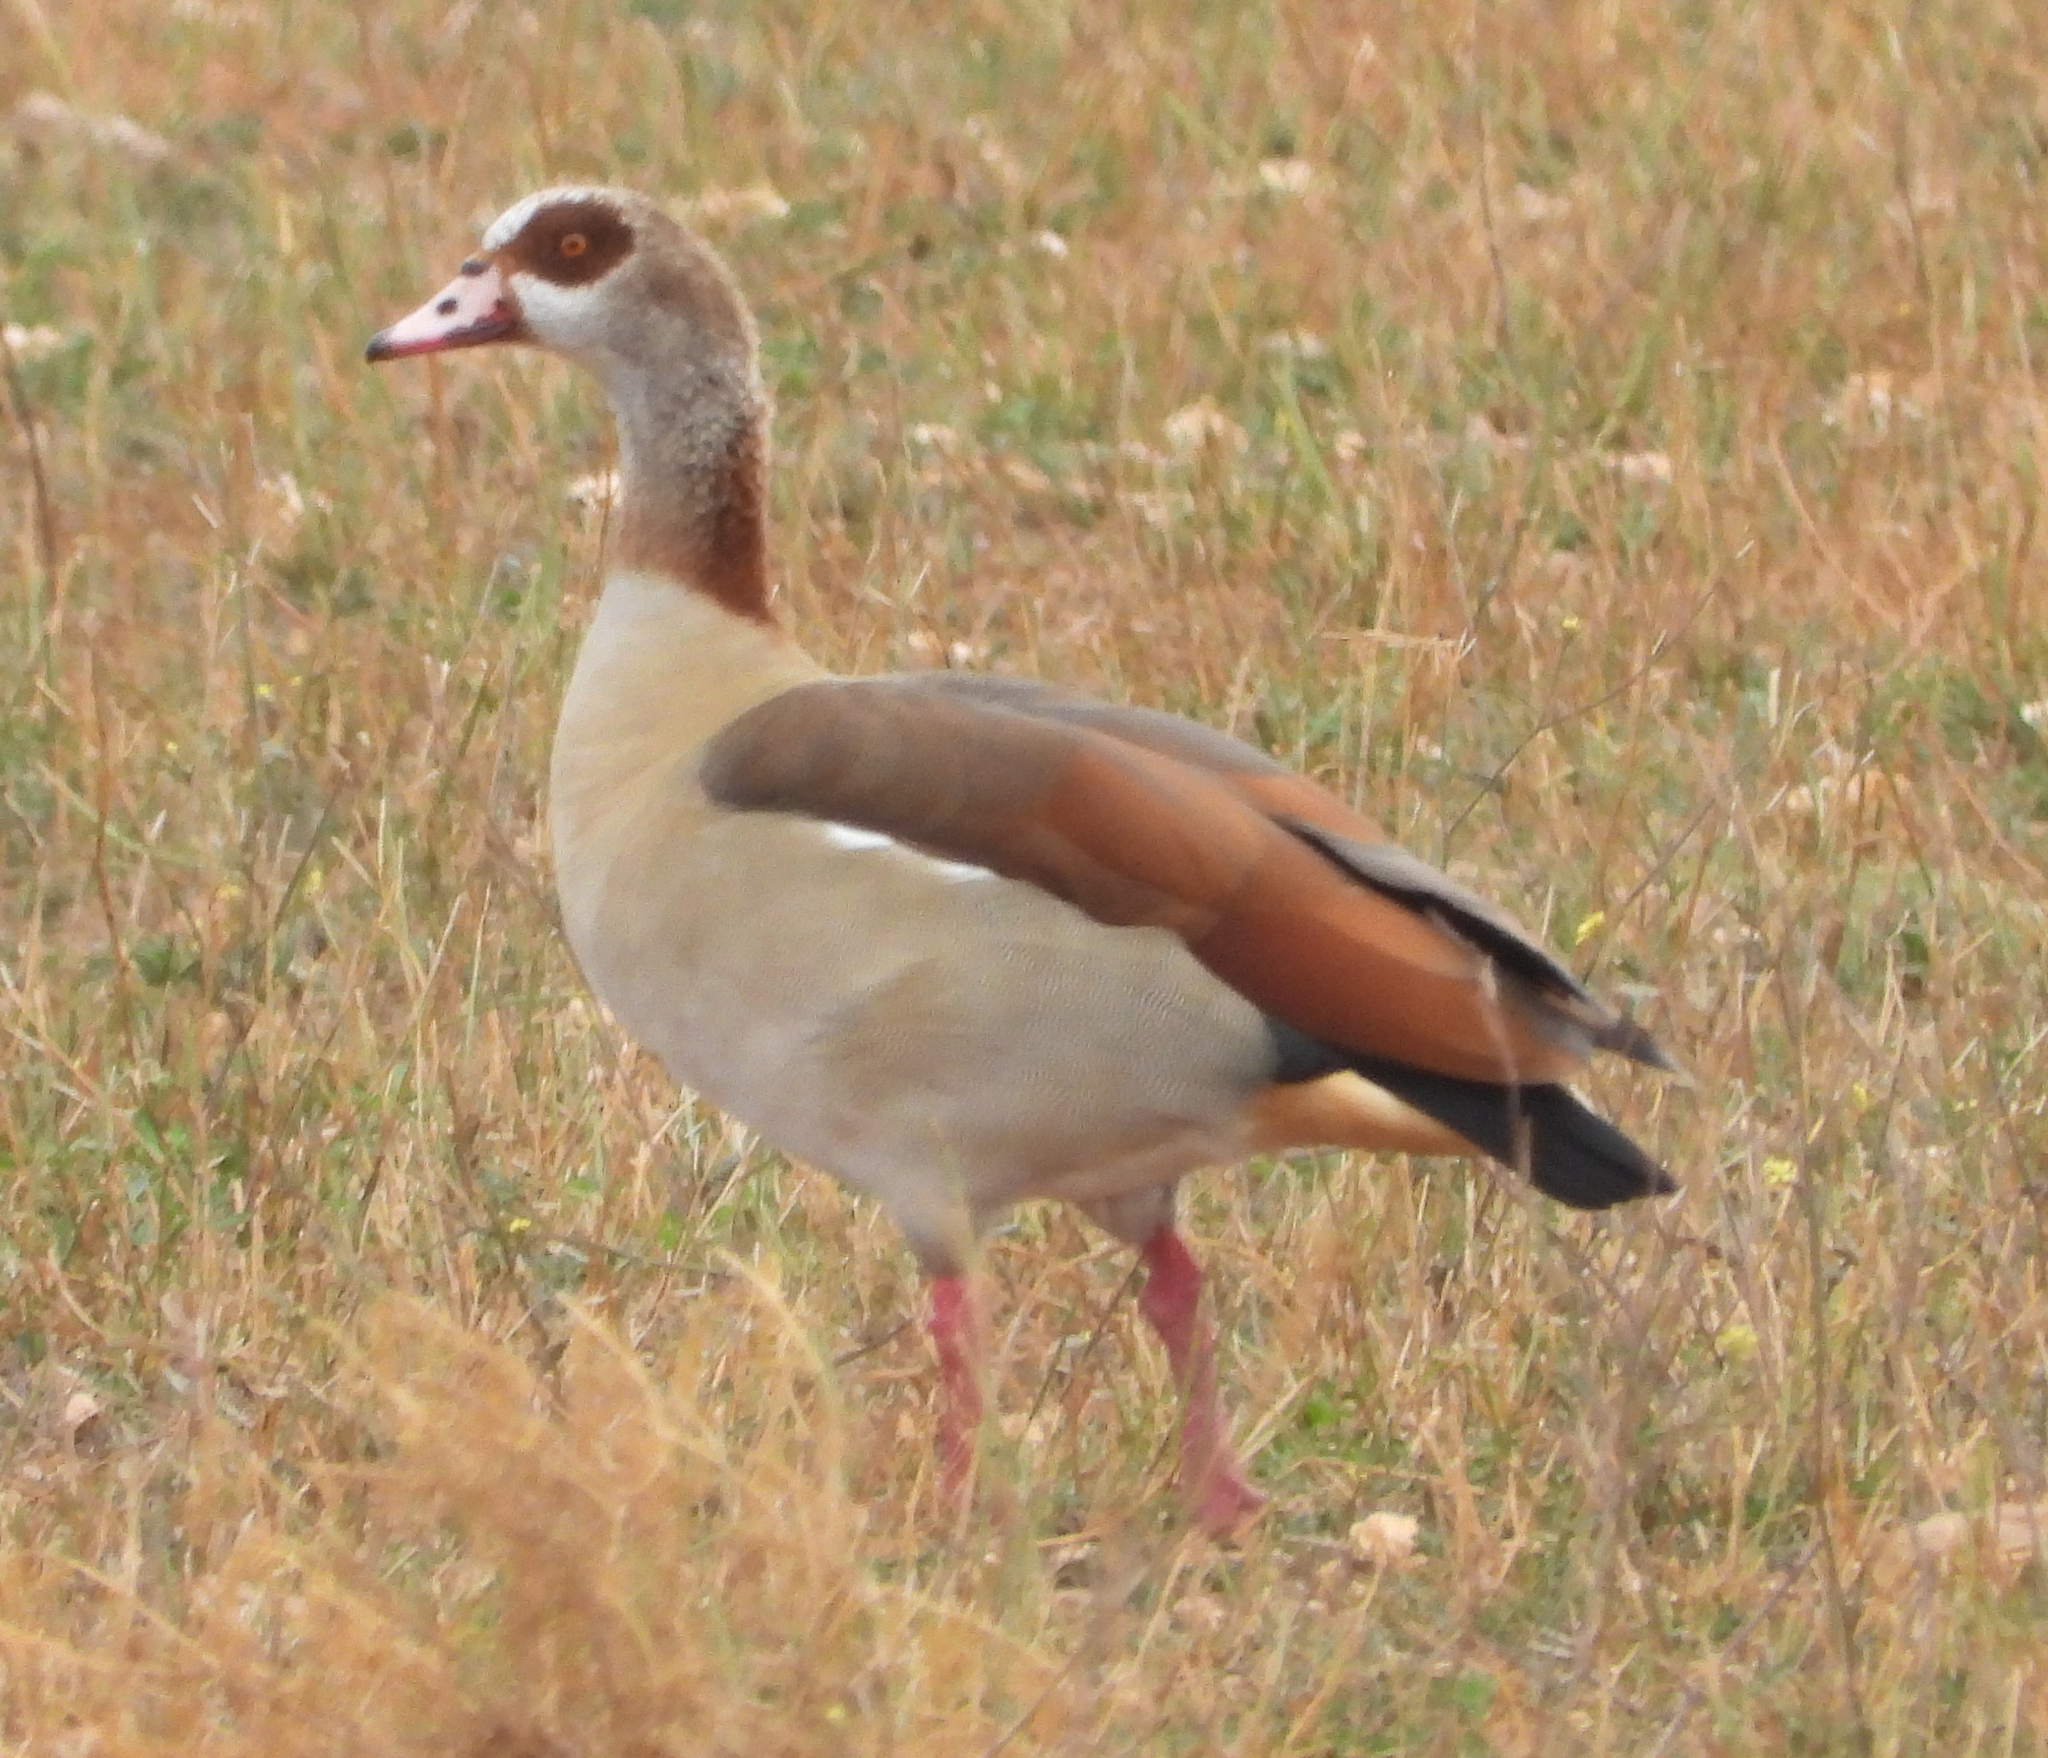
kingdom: Animalia
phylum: Chordata
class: Aves
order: Anseriformes
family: Anatidae
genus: Alopochen
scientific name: Alopochen aegyptiaca
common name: Egyptian goose
